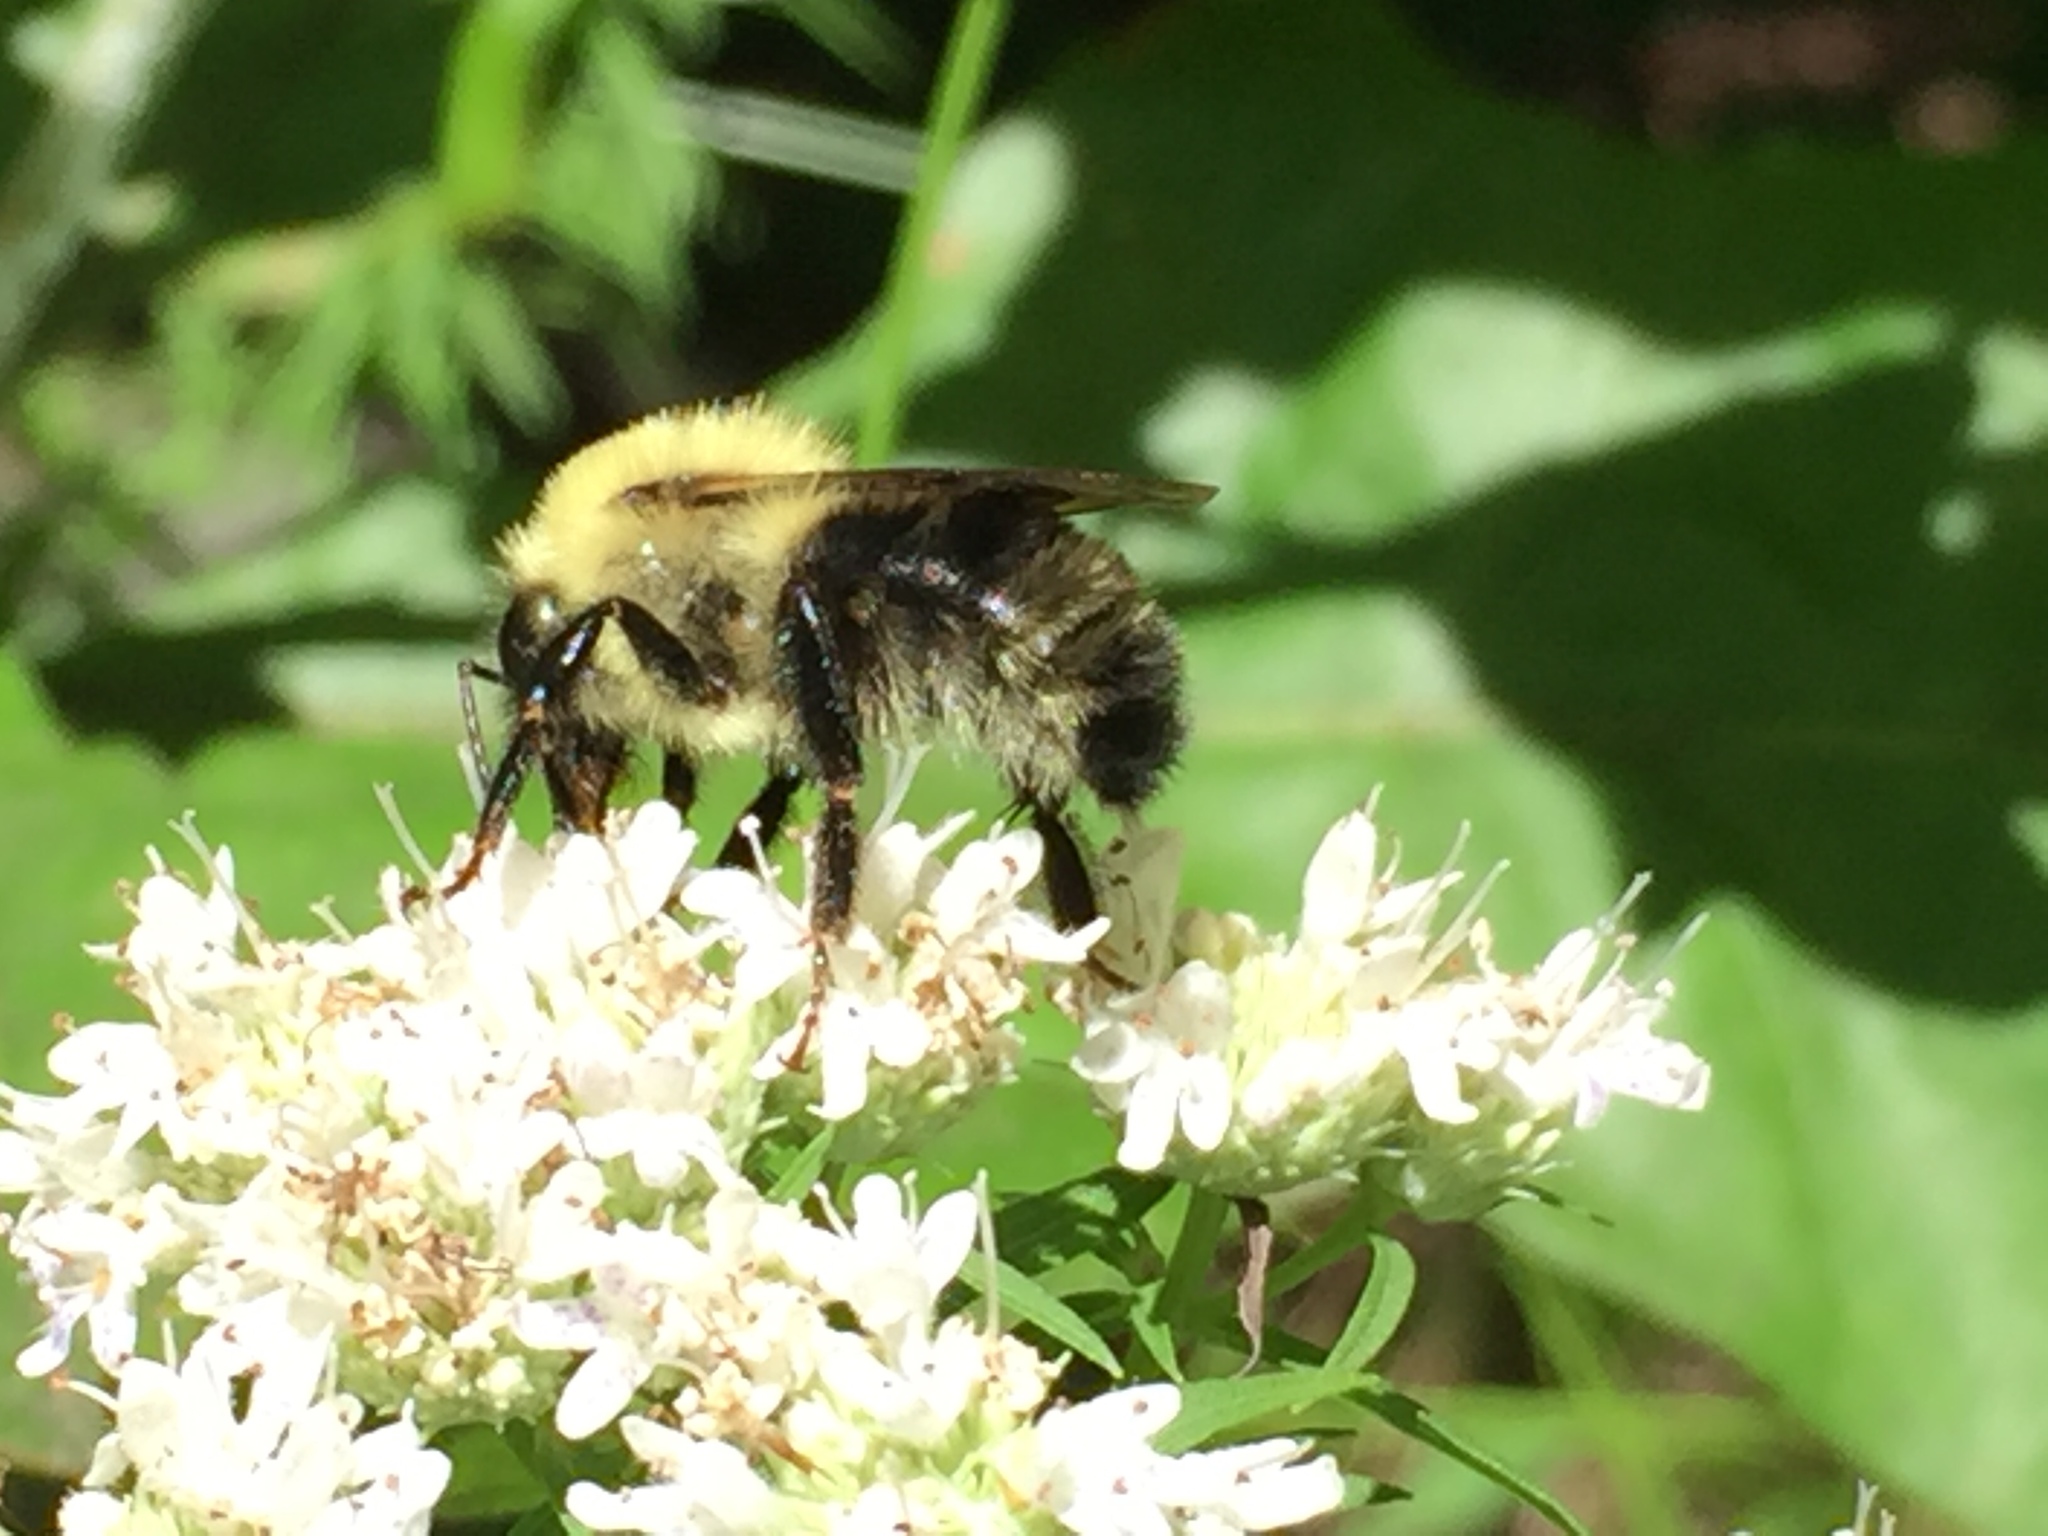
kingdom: Animalia
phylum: Arthropoda
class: Insecta
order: Hymenoptera
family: Apidae
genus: Bombus
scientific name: Bombus bimaculatus
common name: Two-spotted bumble bee
